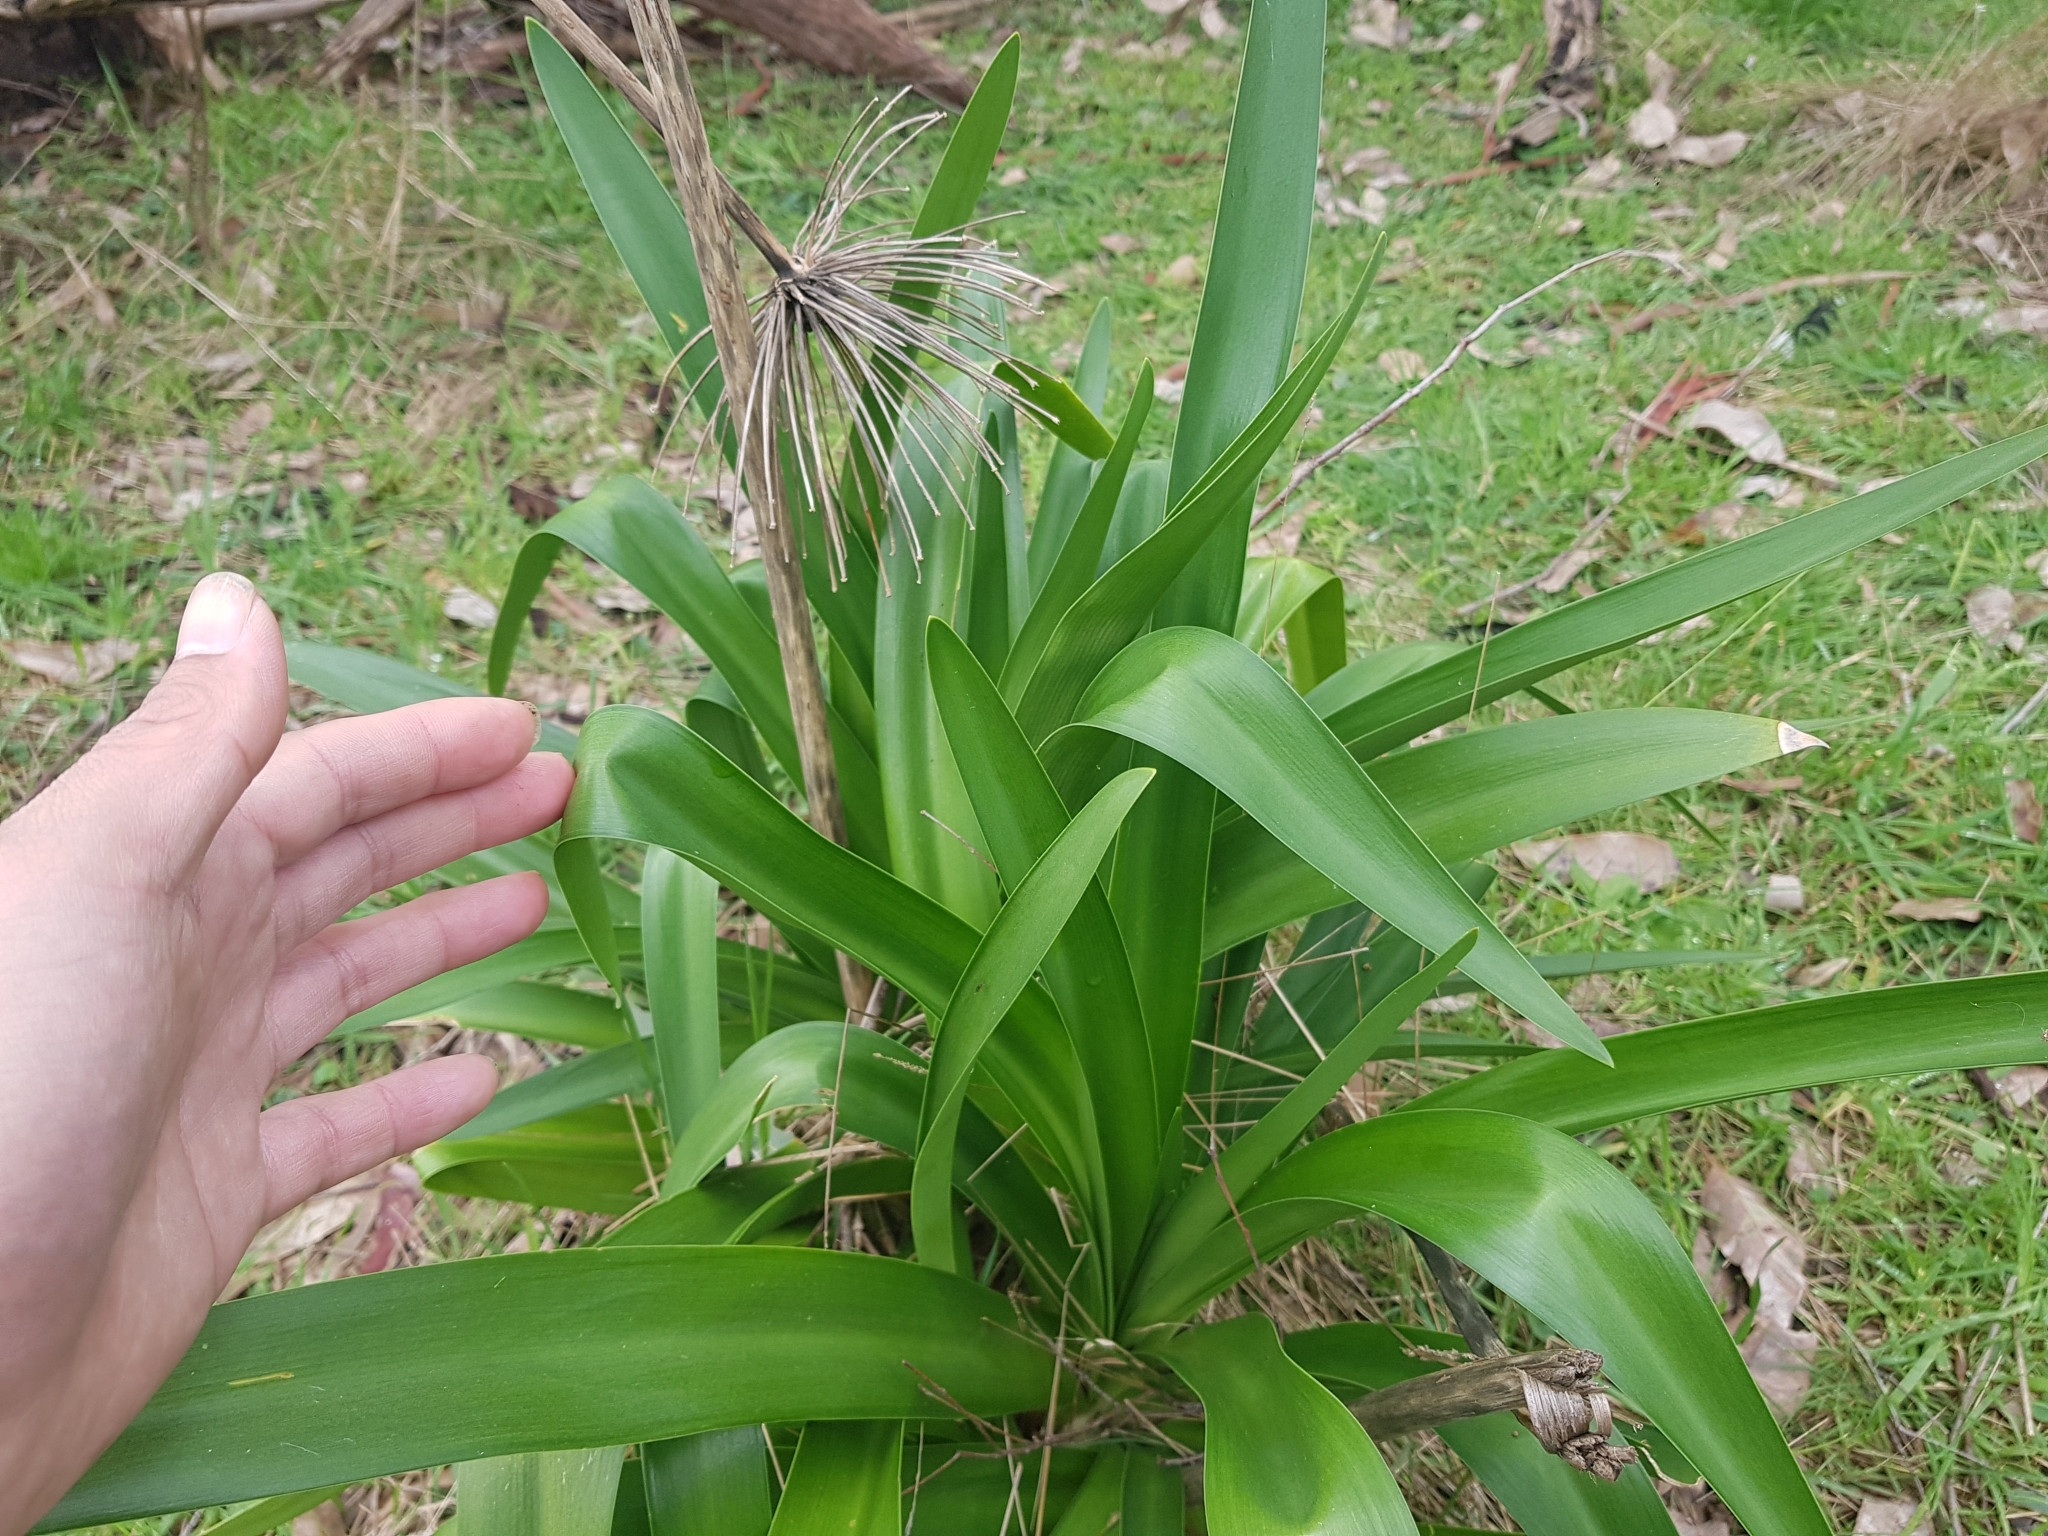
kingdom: Plantae
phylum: Tracheophyta
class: Liliopsida
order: Asparagales
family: Amaryllidaceae
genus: Agapanthus
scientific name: Agapanthus praecox
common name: African-lily
